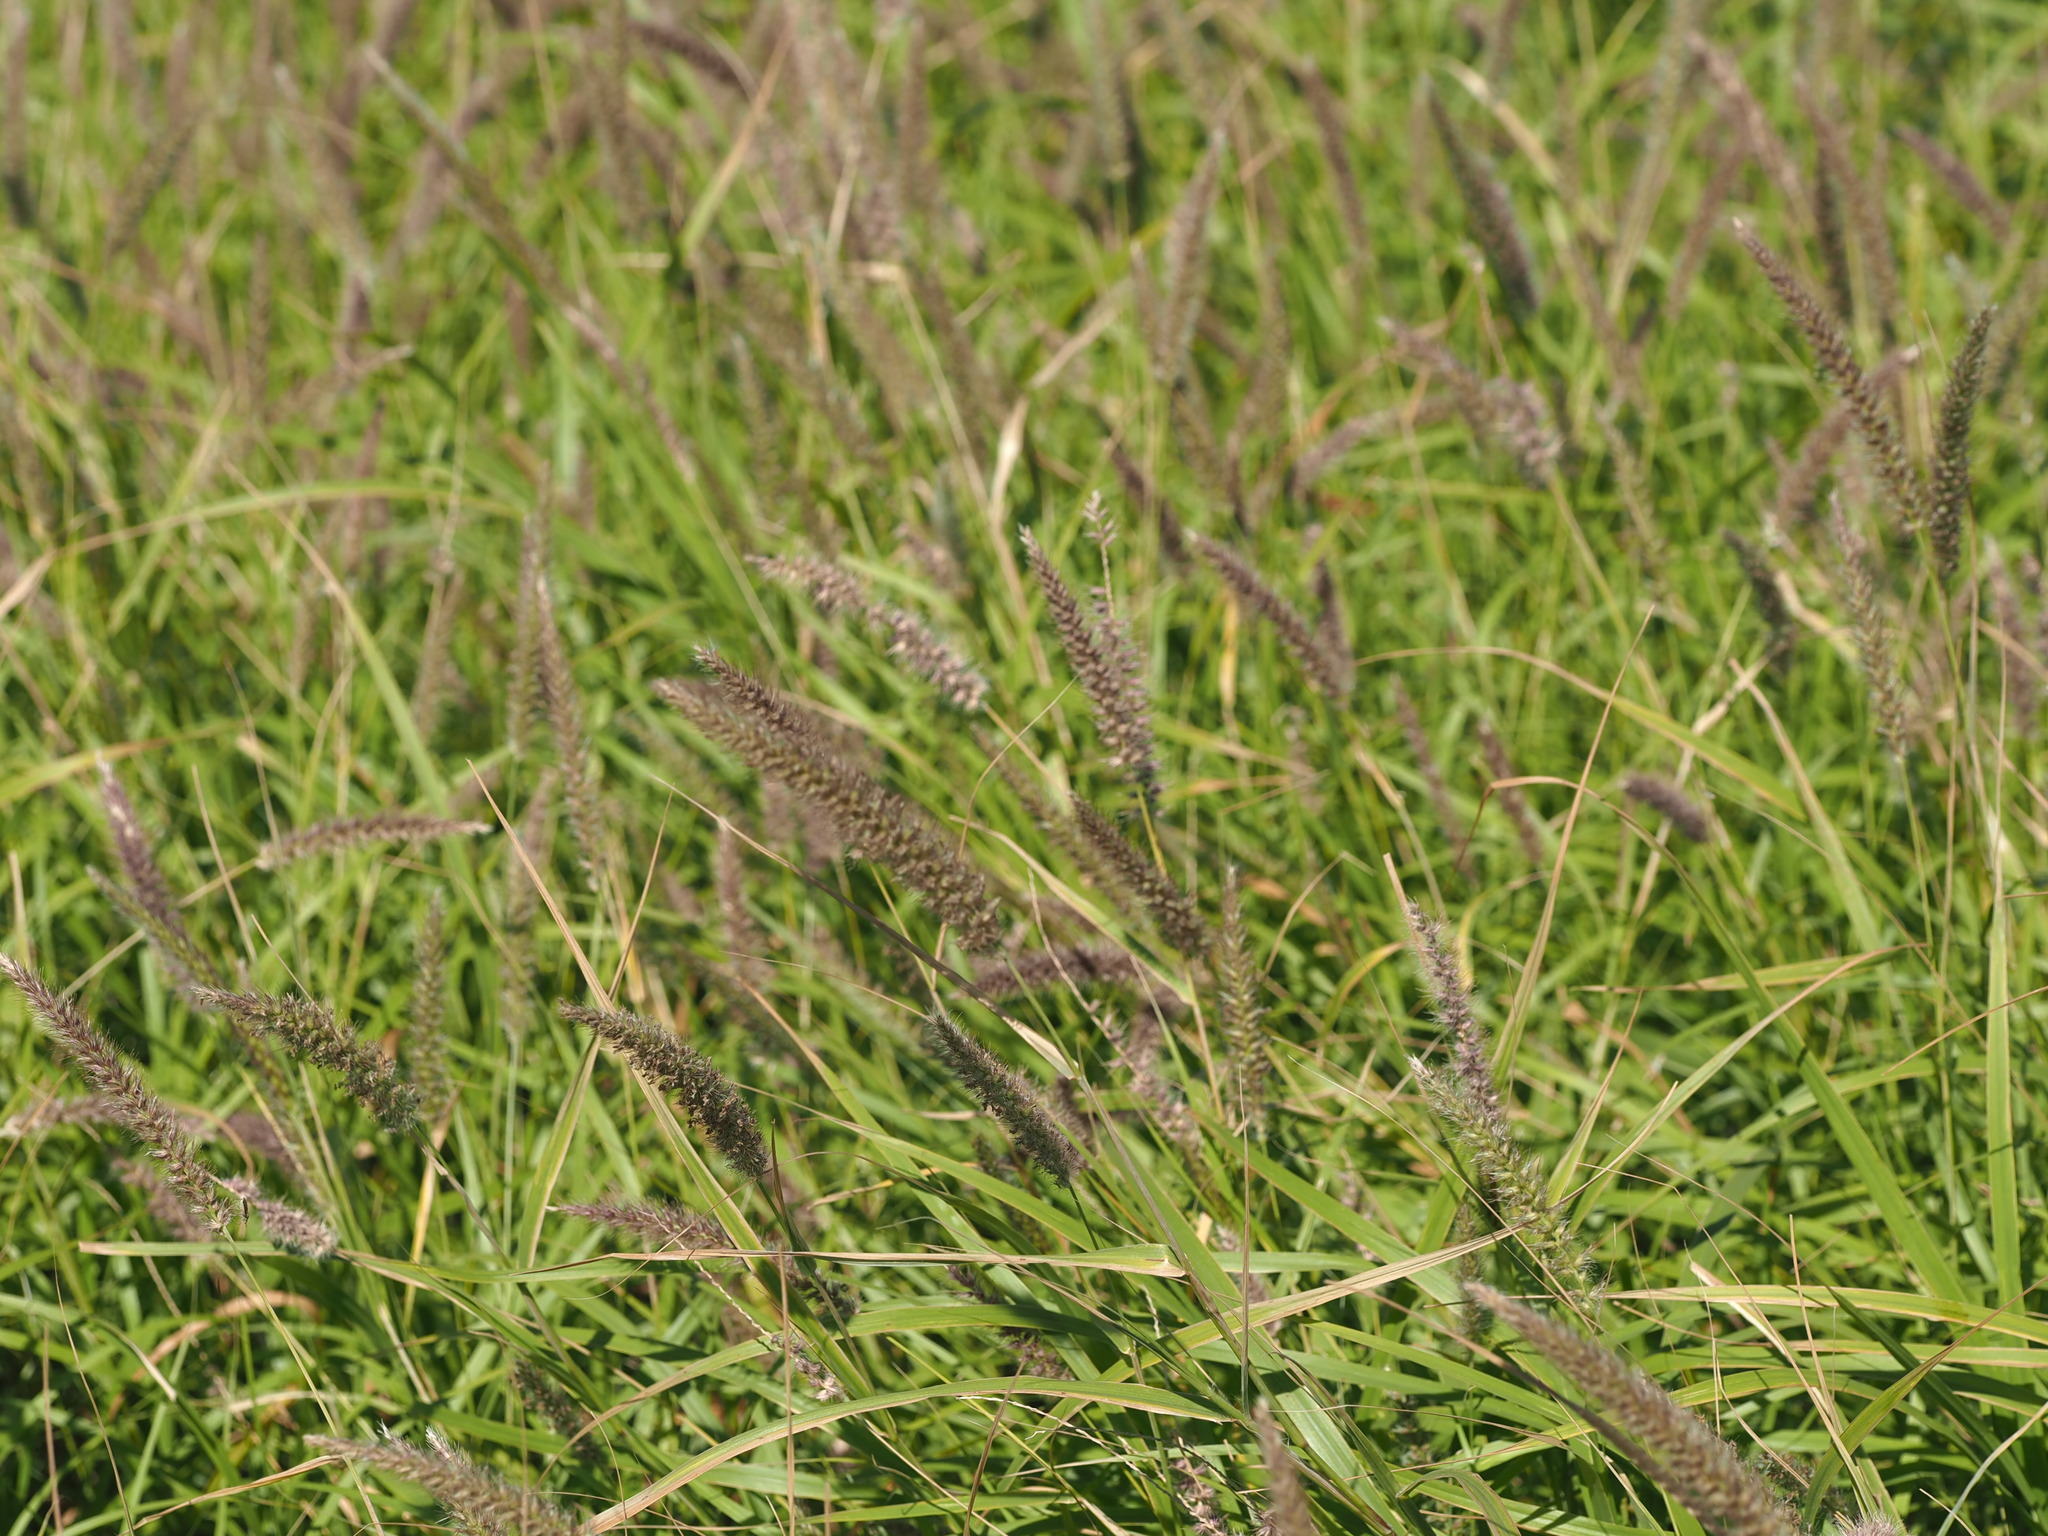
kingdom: Plantae
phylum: Tracheophyta
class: Liliopsida
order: Poales
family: Poaceae
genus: Cenchrus
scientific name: Cenchrus ciliaris
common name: Buffelgrass
